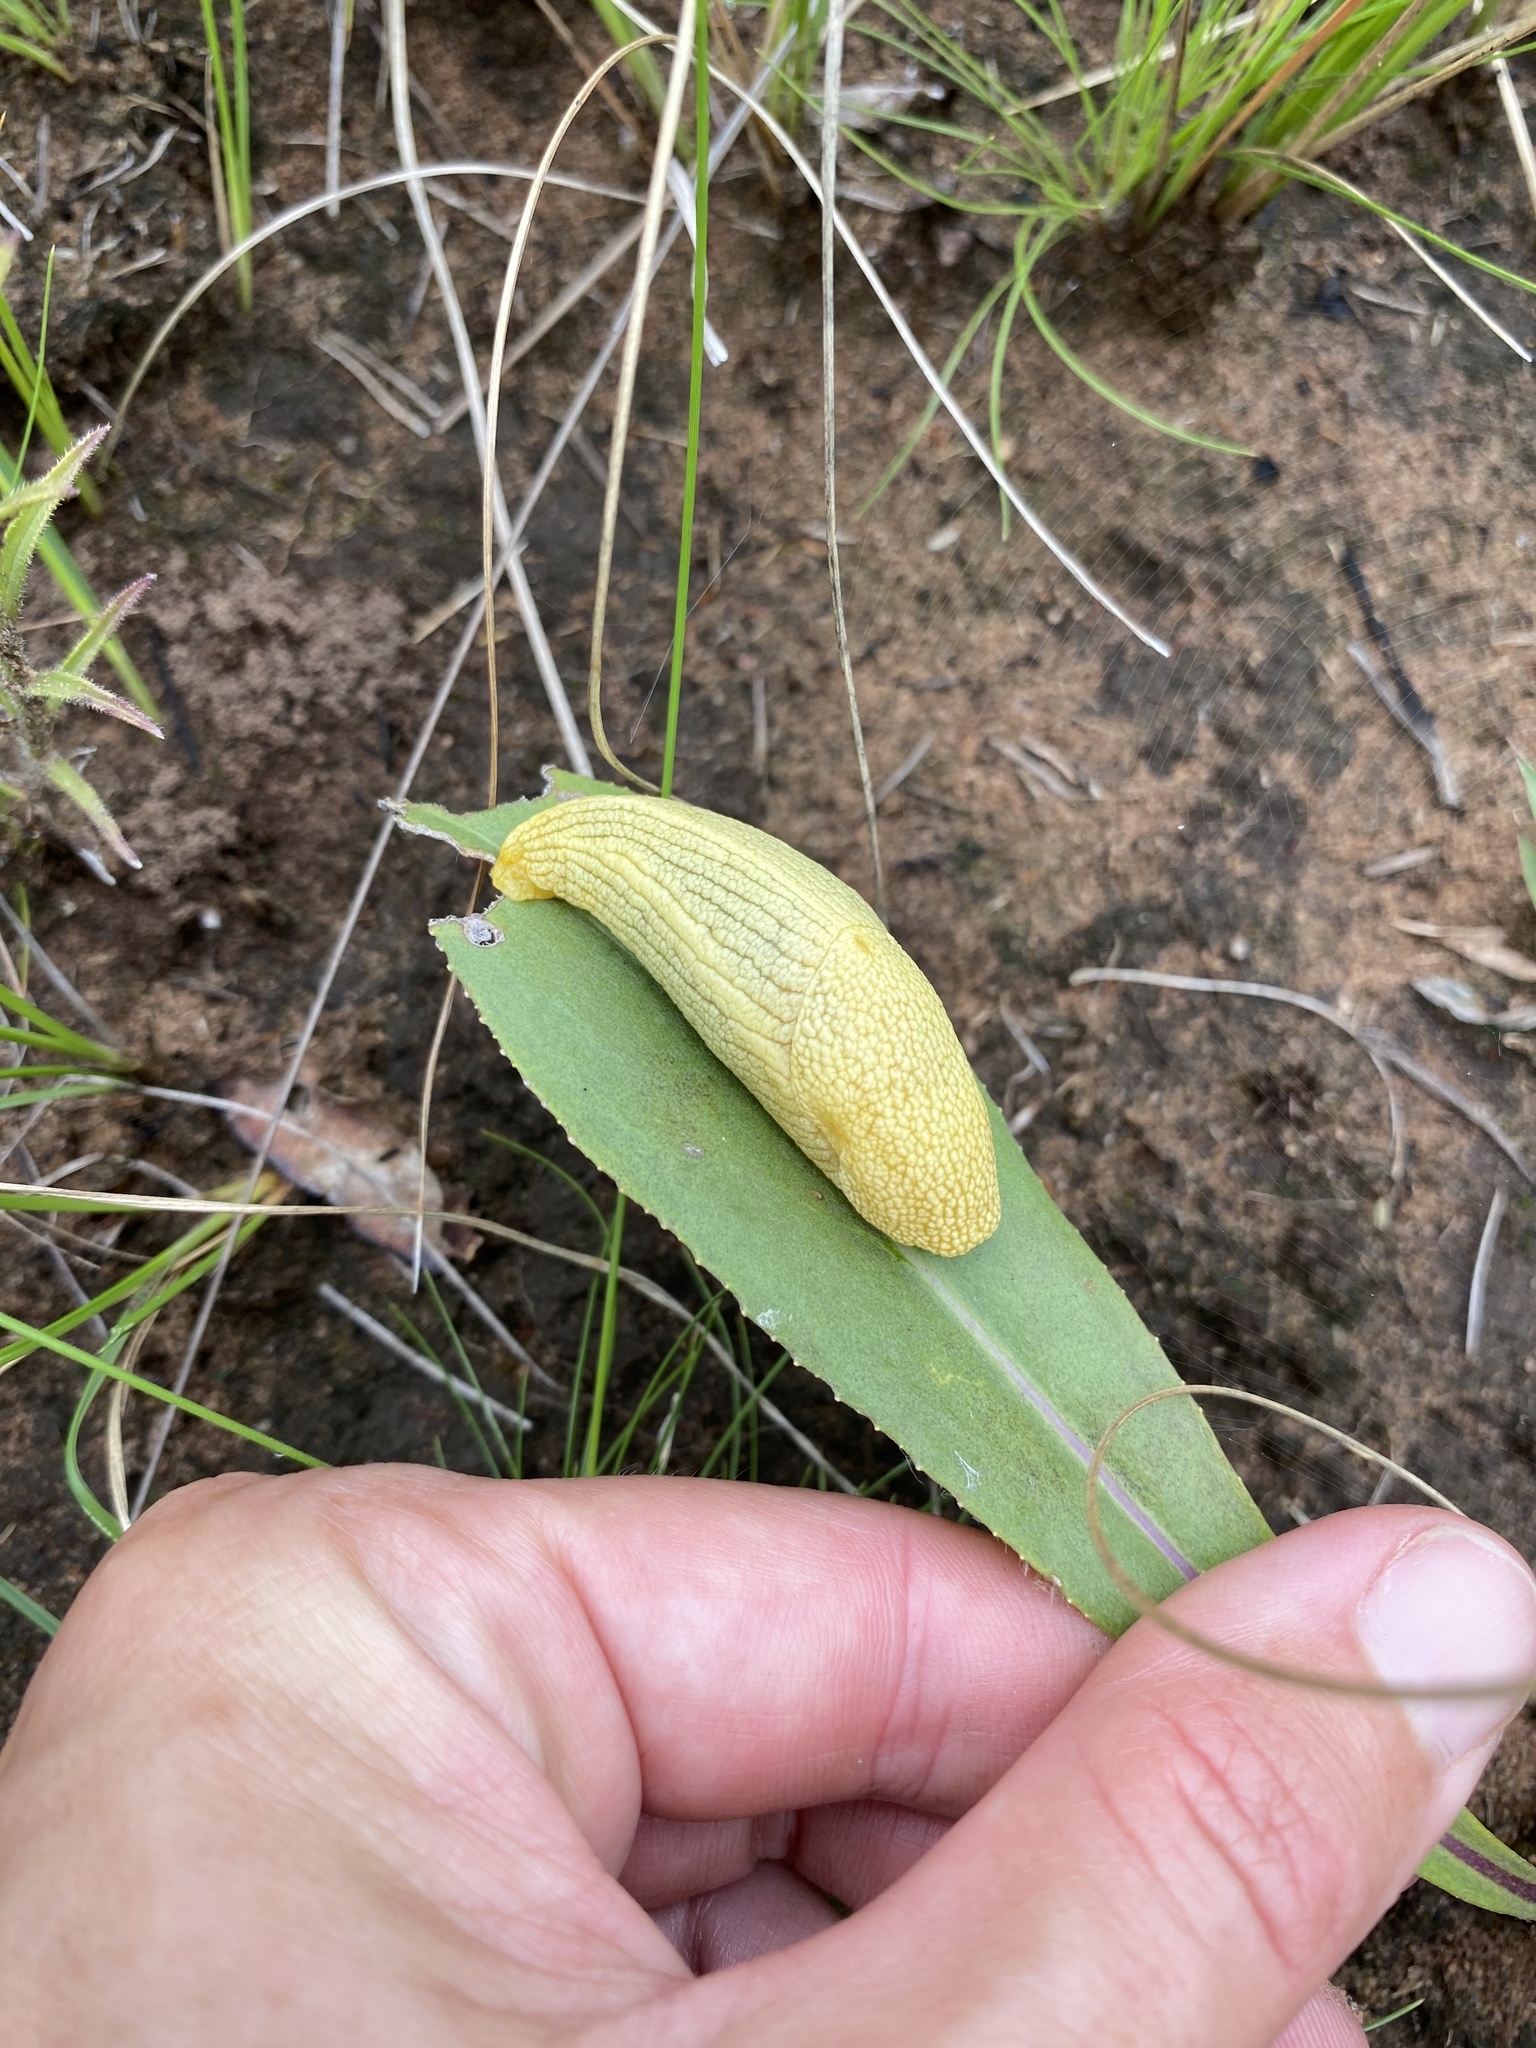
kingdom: Animalia
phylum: Mollusca
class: Gastropoda
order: Stylommatophora
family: Urocyclidae
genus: Elisolimax
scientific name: Elisolimax flavescens
